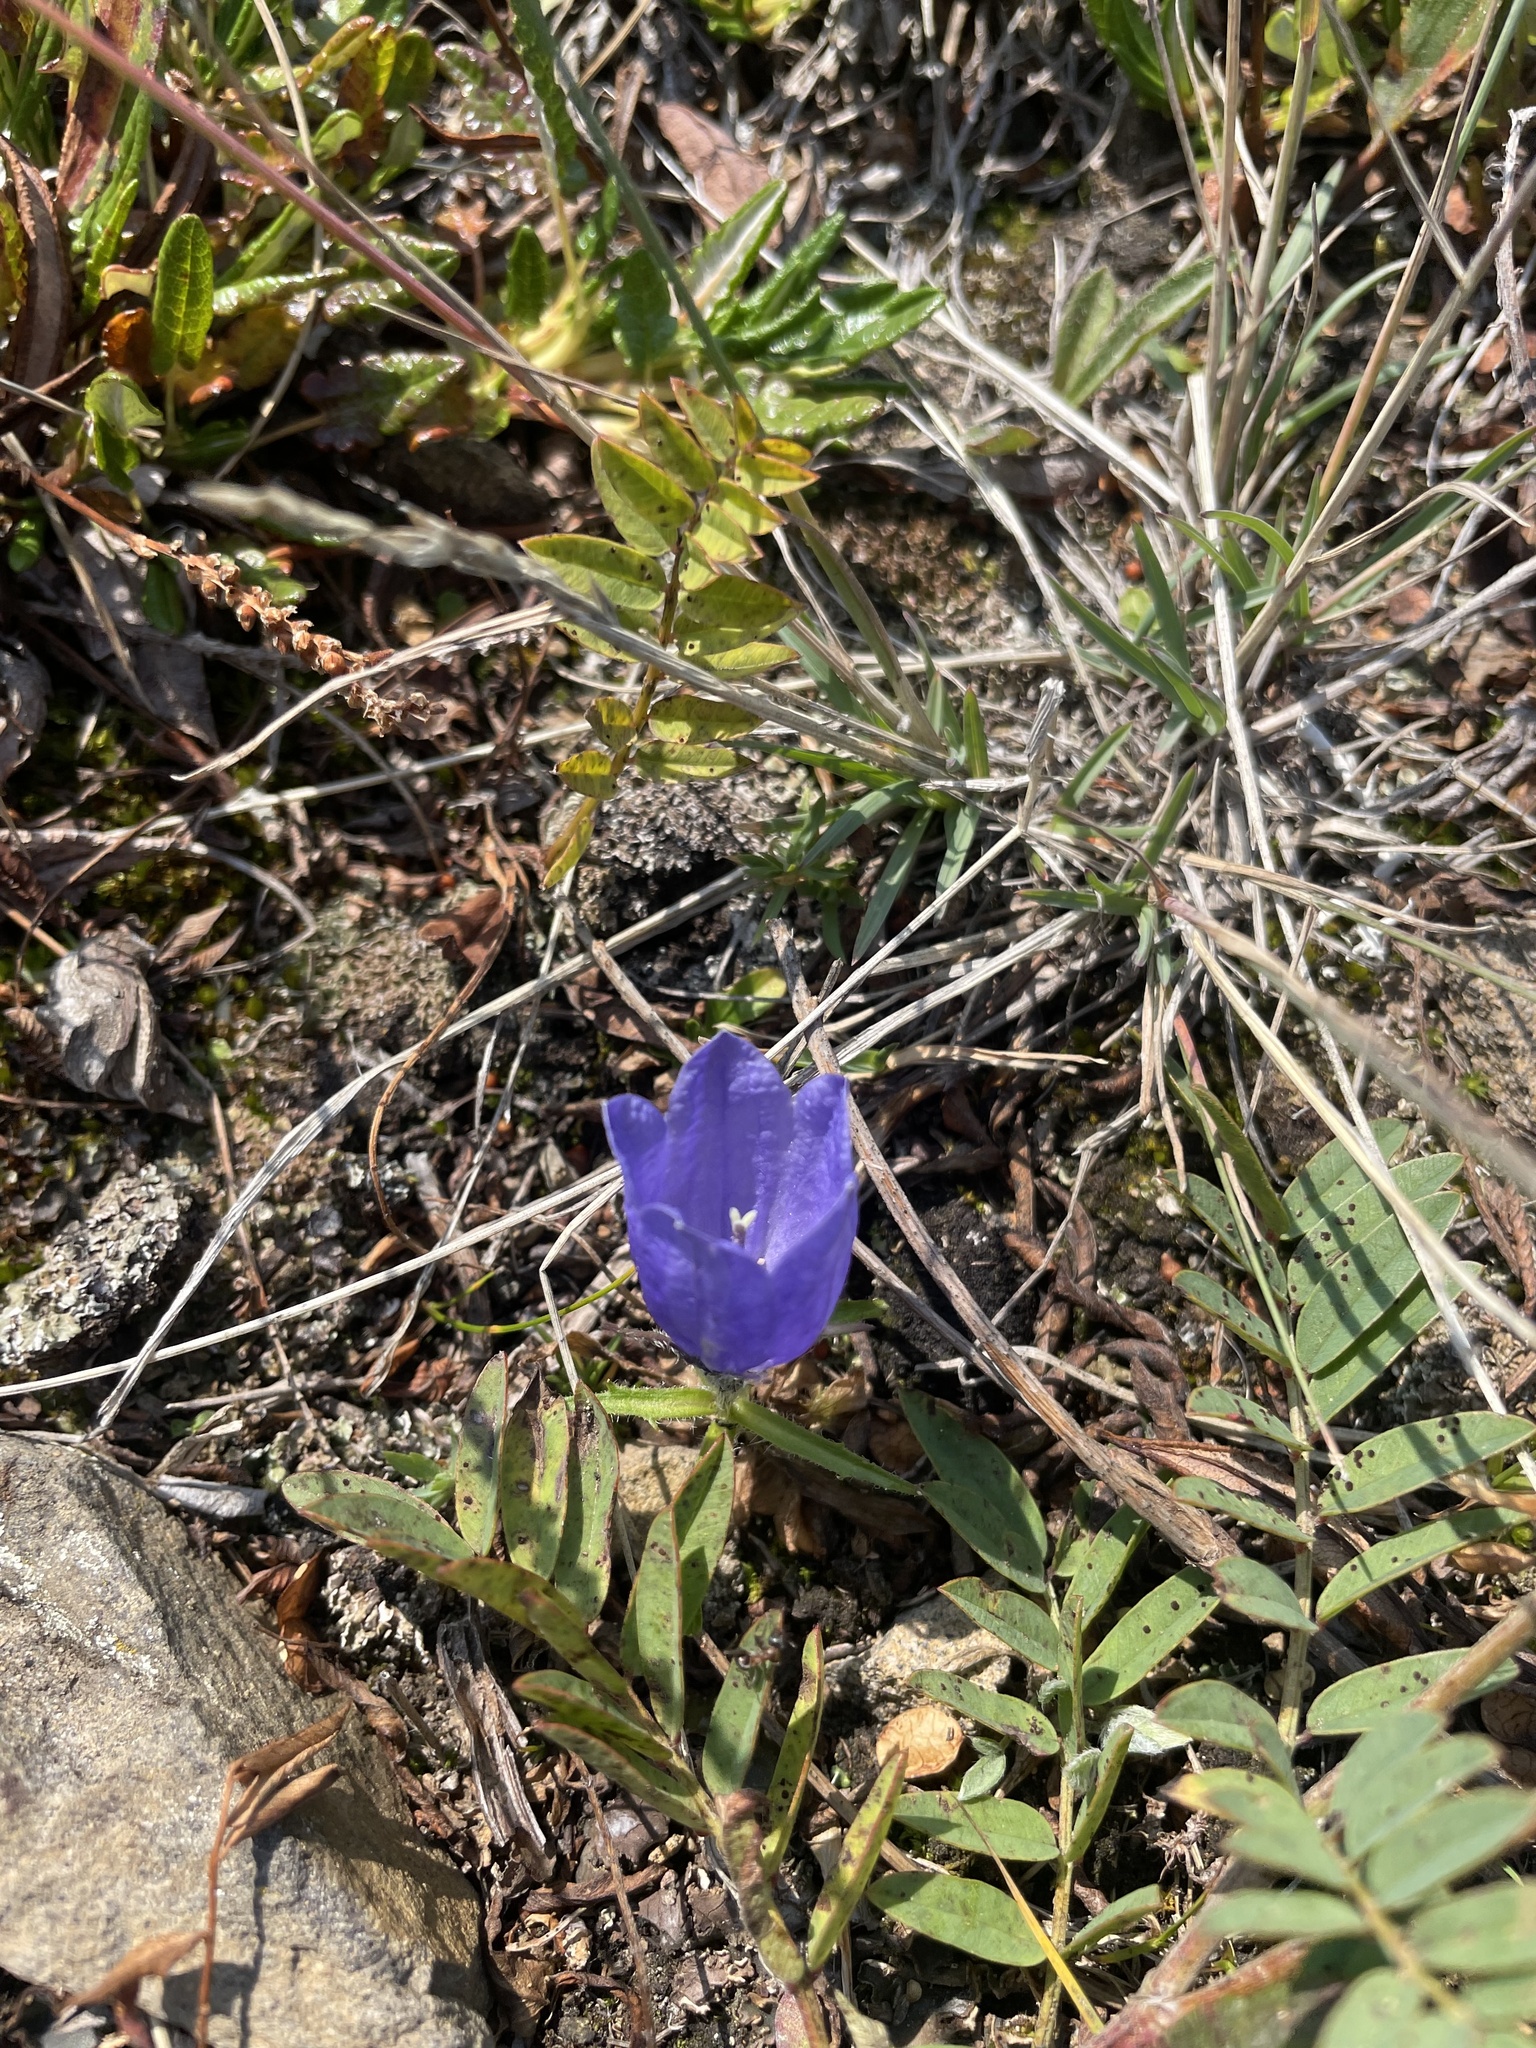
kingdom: Plantae
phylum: Tracheophyta
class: Magnoliopsida
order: Asterales
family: Campanulaceae
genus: Campanula
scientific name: Campanula lasiocarpa
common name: Mountain harebell
